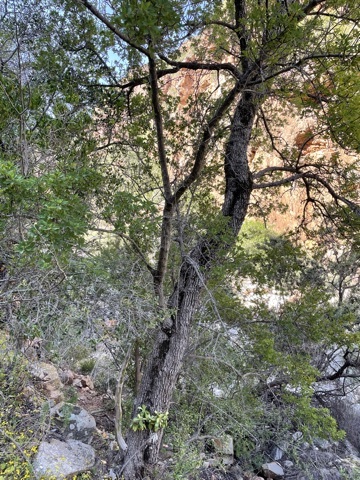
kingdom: Plantae
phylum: Tracheophyta
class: Magnoliopsida
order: Sapindales
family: Sapindaceae
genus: Pappea
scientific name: Pappea capensis
